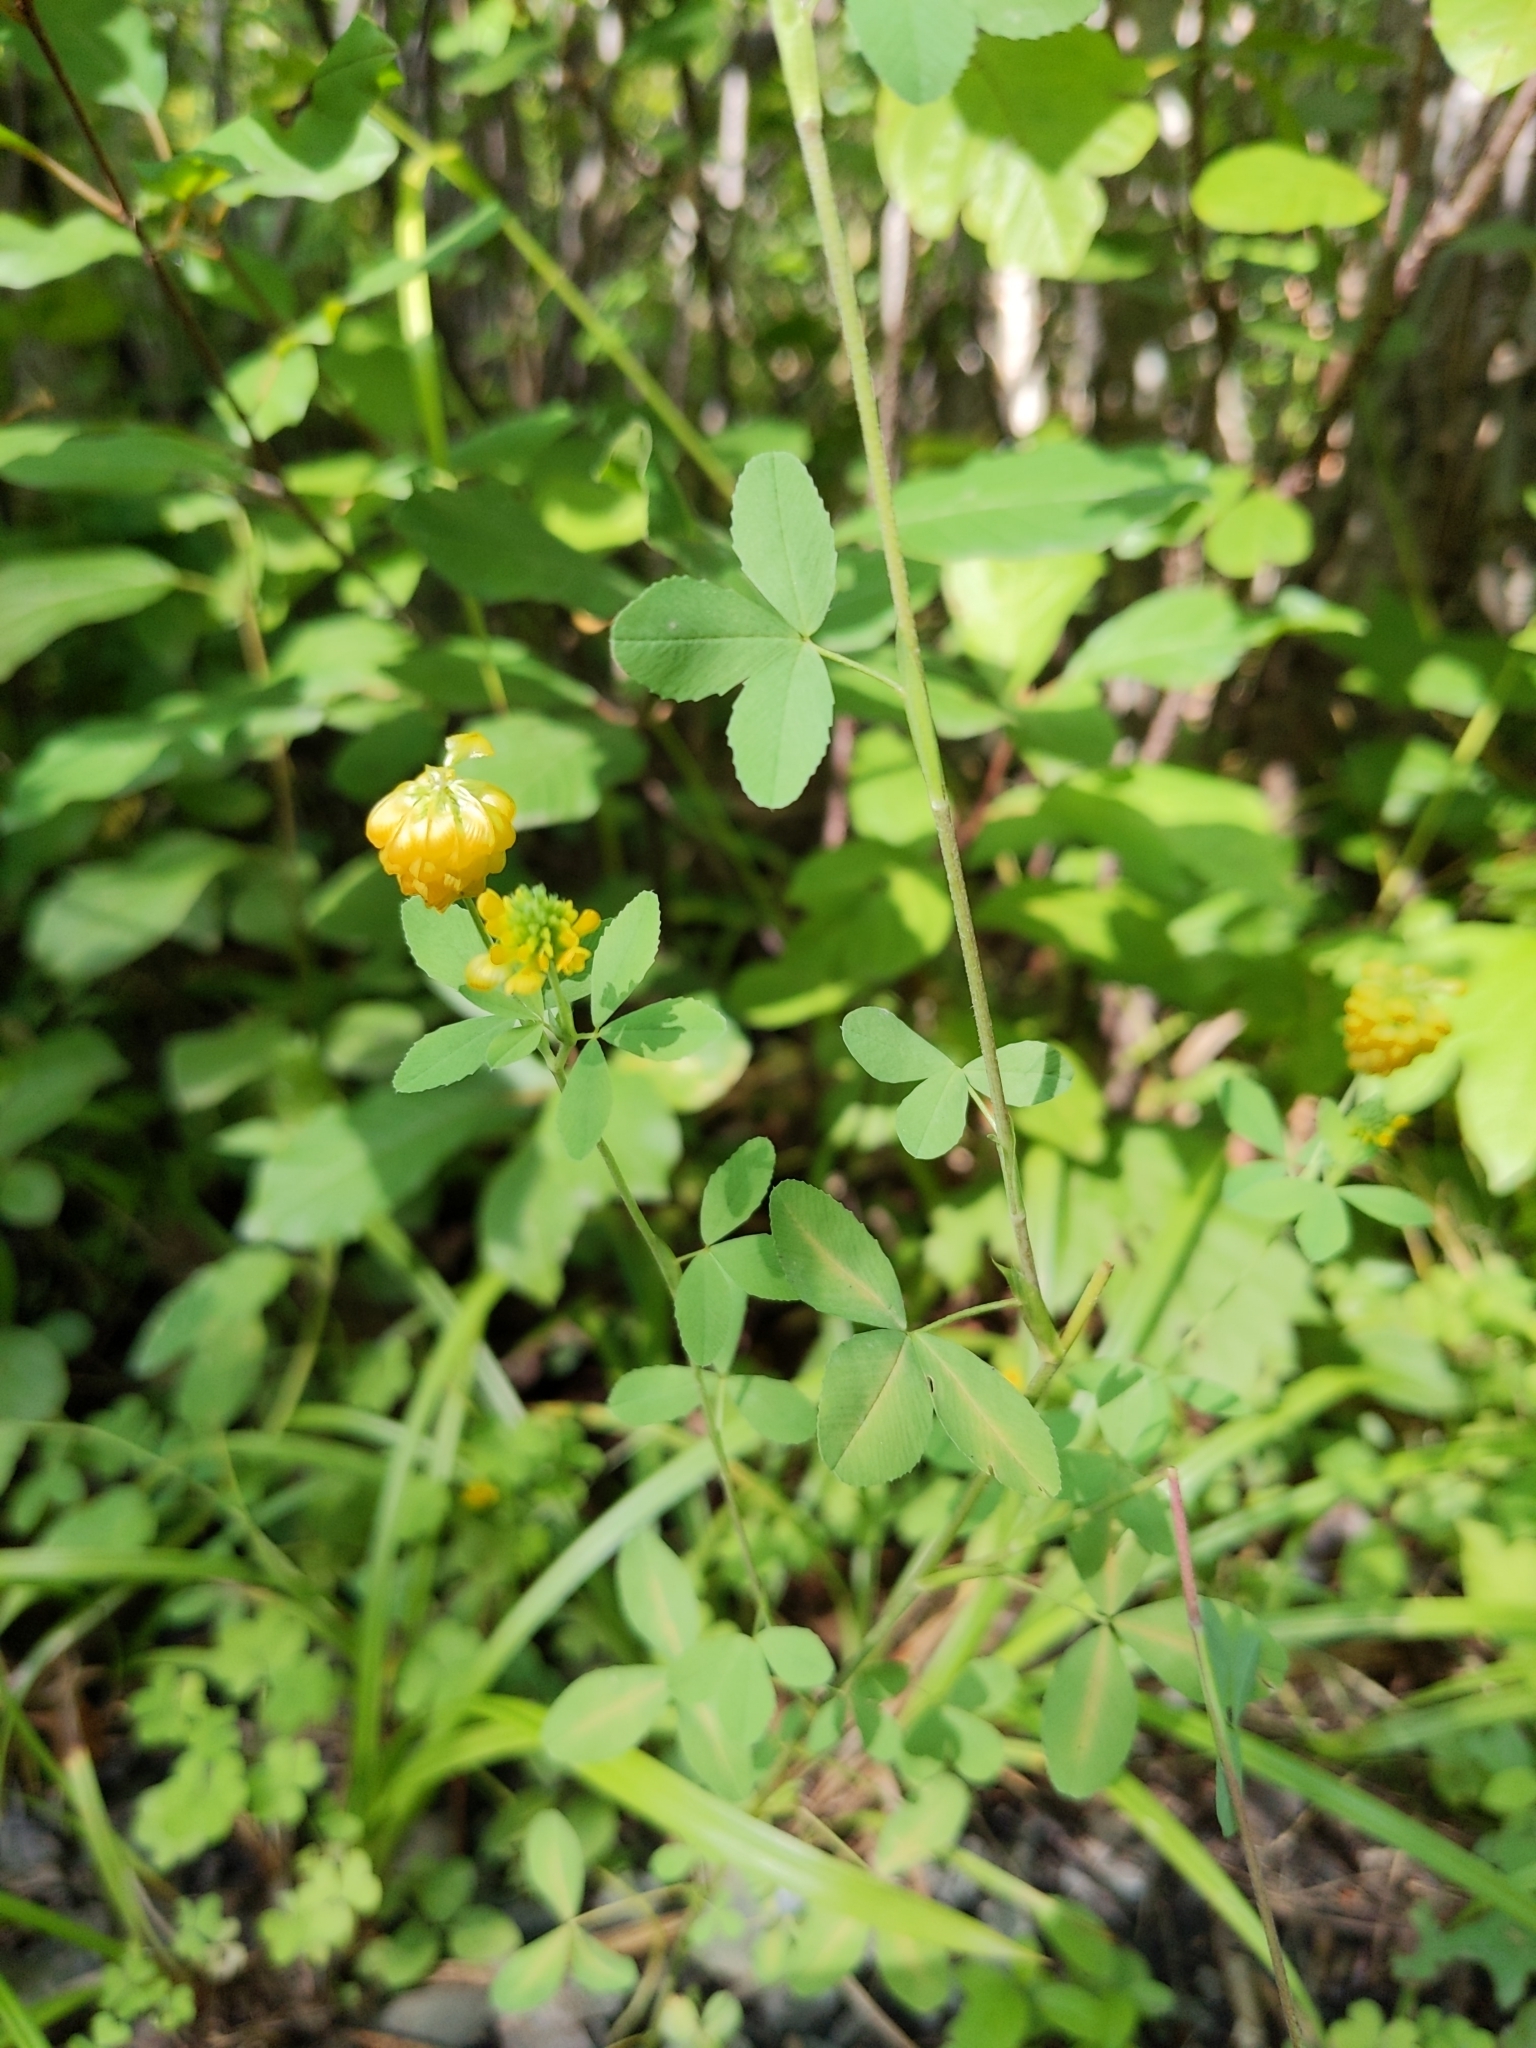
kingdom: Plantae
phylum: Tracheophyta
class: Magnoliopsida
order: Fabales
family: Fabaceae
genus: Trifolium
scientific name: Trifolium aureum
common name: Golden clover
